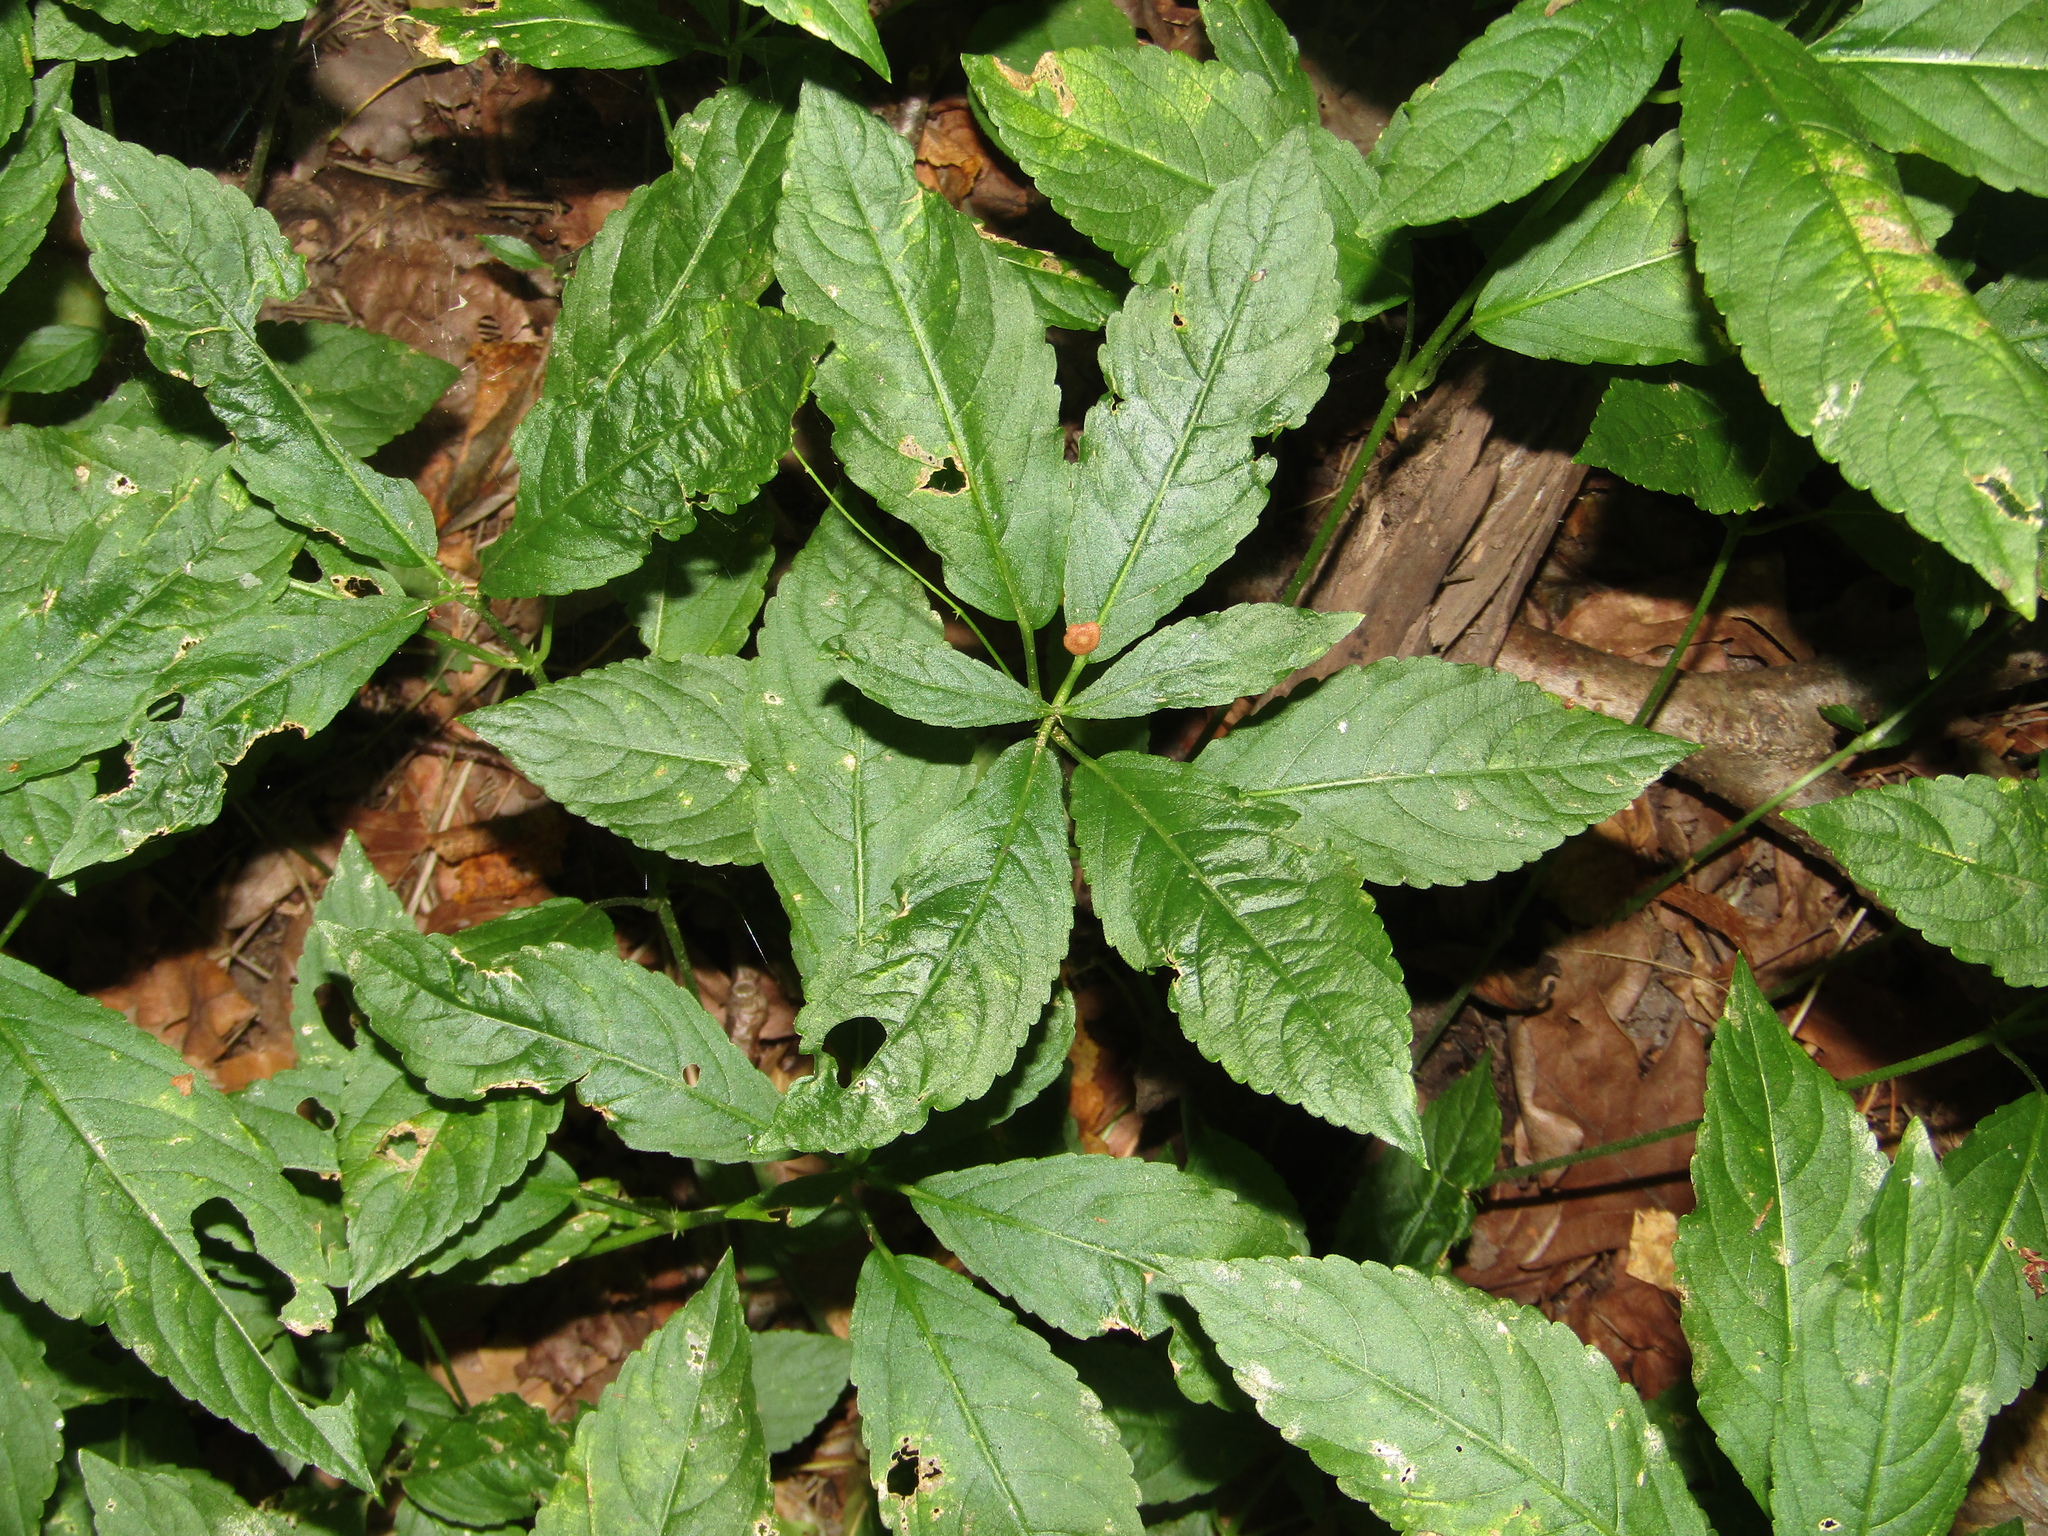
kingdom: Plantae
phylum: Tracheophyta
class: Magnoliopsida
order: Malpighiales
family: Euphorbiaceae
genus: Mercurialis
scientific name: Mercurialis perennis
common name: Dog mercury
